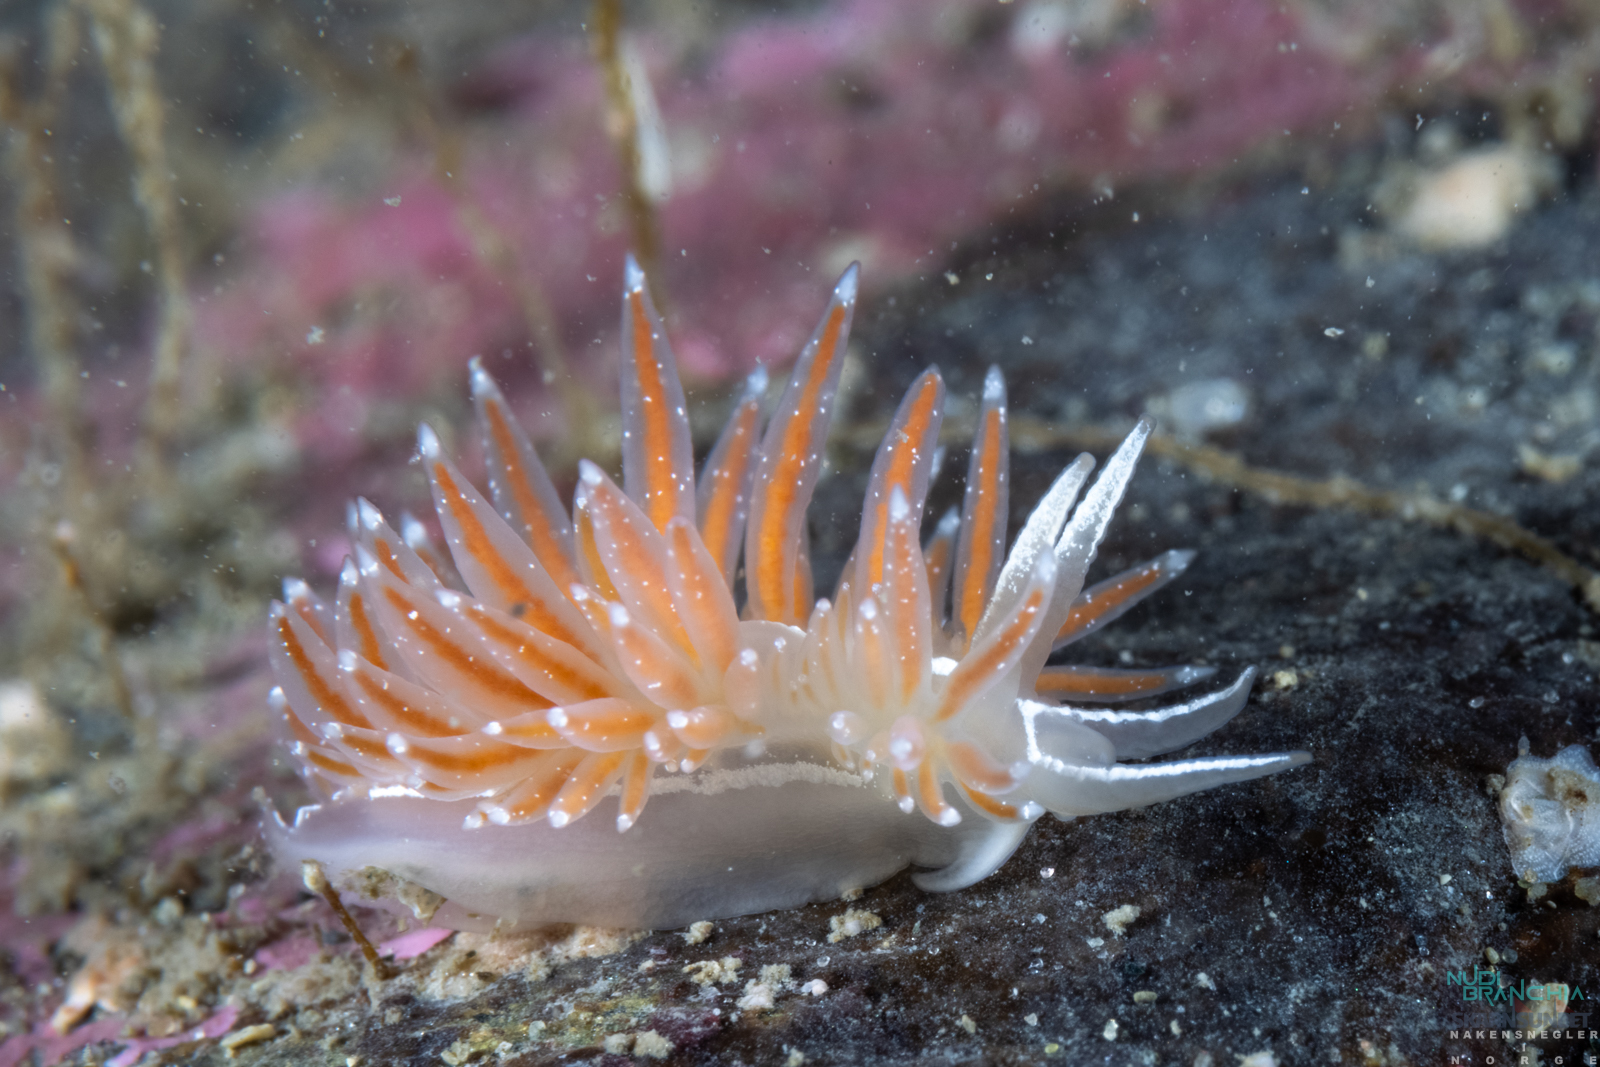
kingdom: Animalia
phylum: Mollusca
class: Gastropoda
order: Nudibranchia
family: Coryphellidae
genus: Coryphella
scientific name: Coryphella orjani
